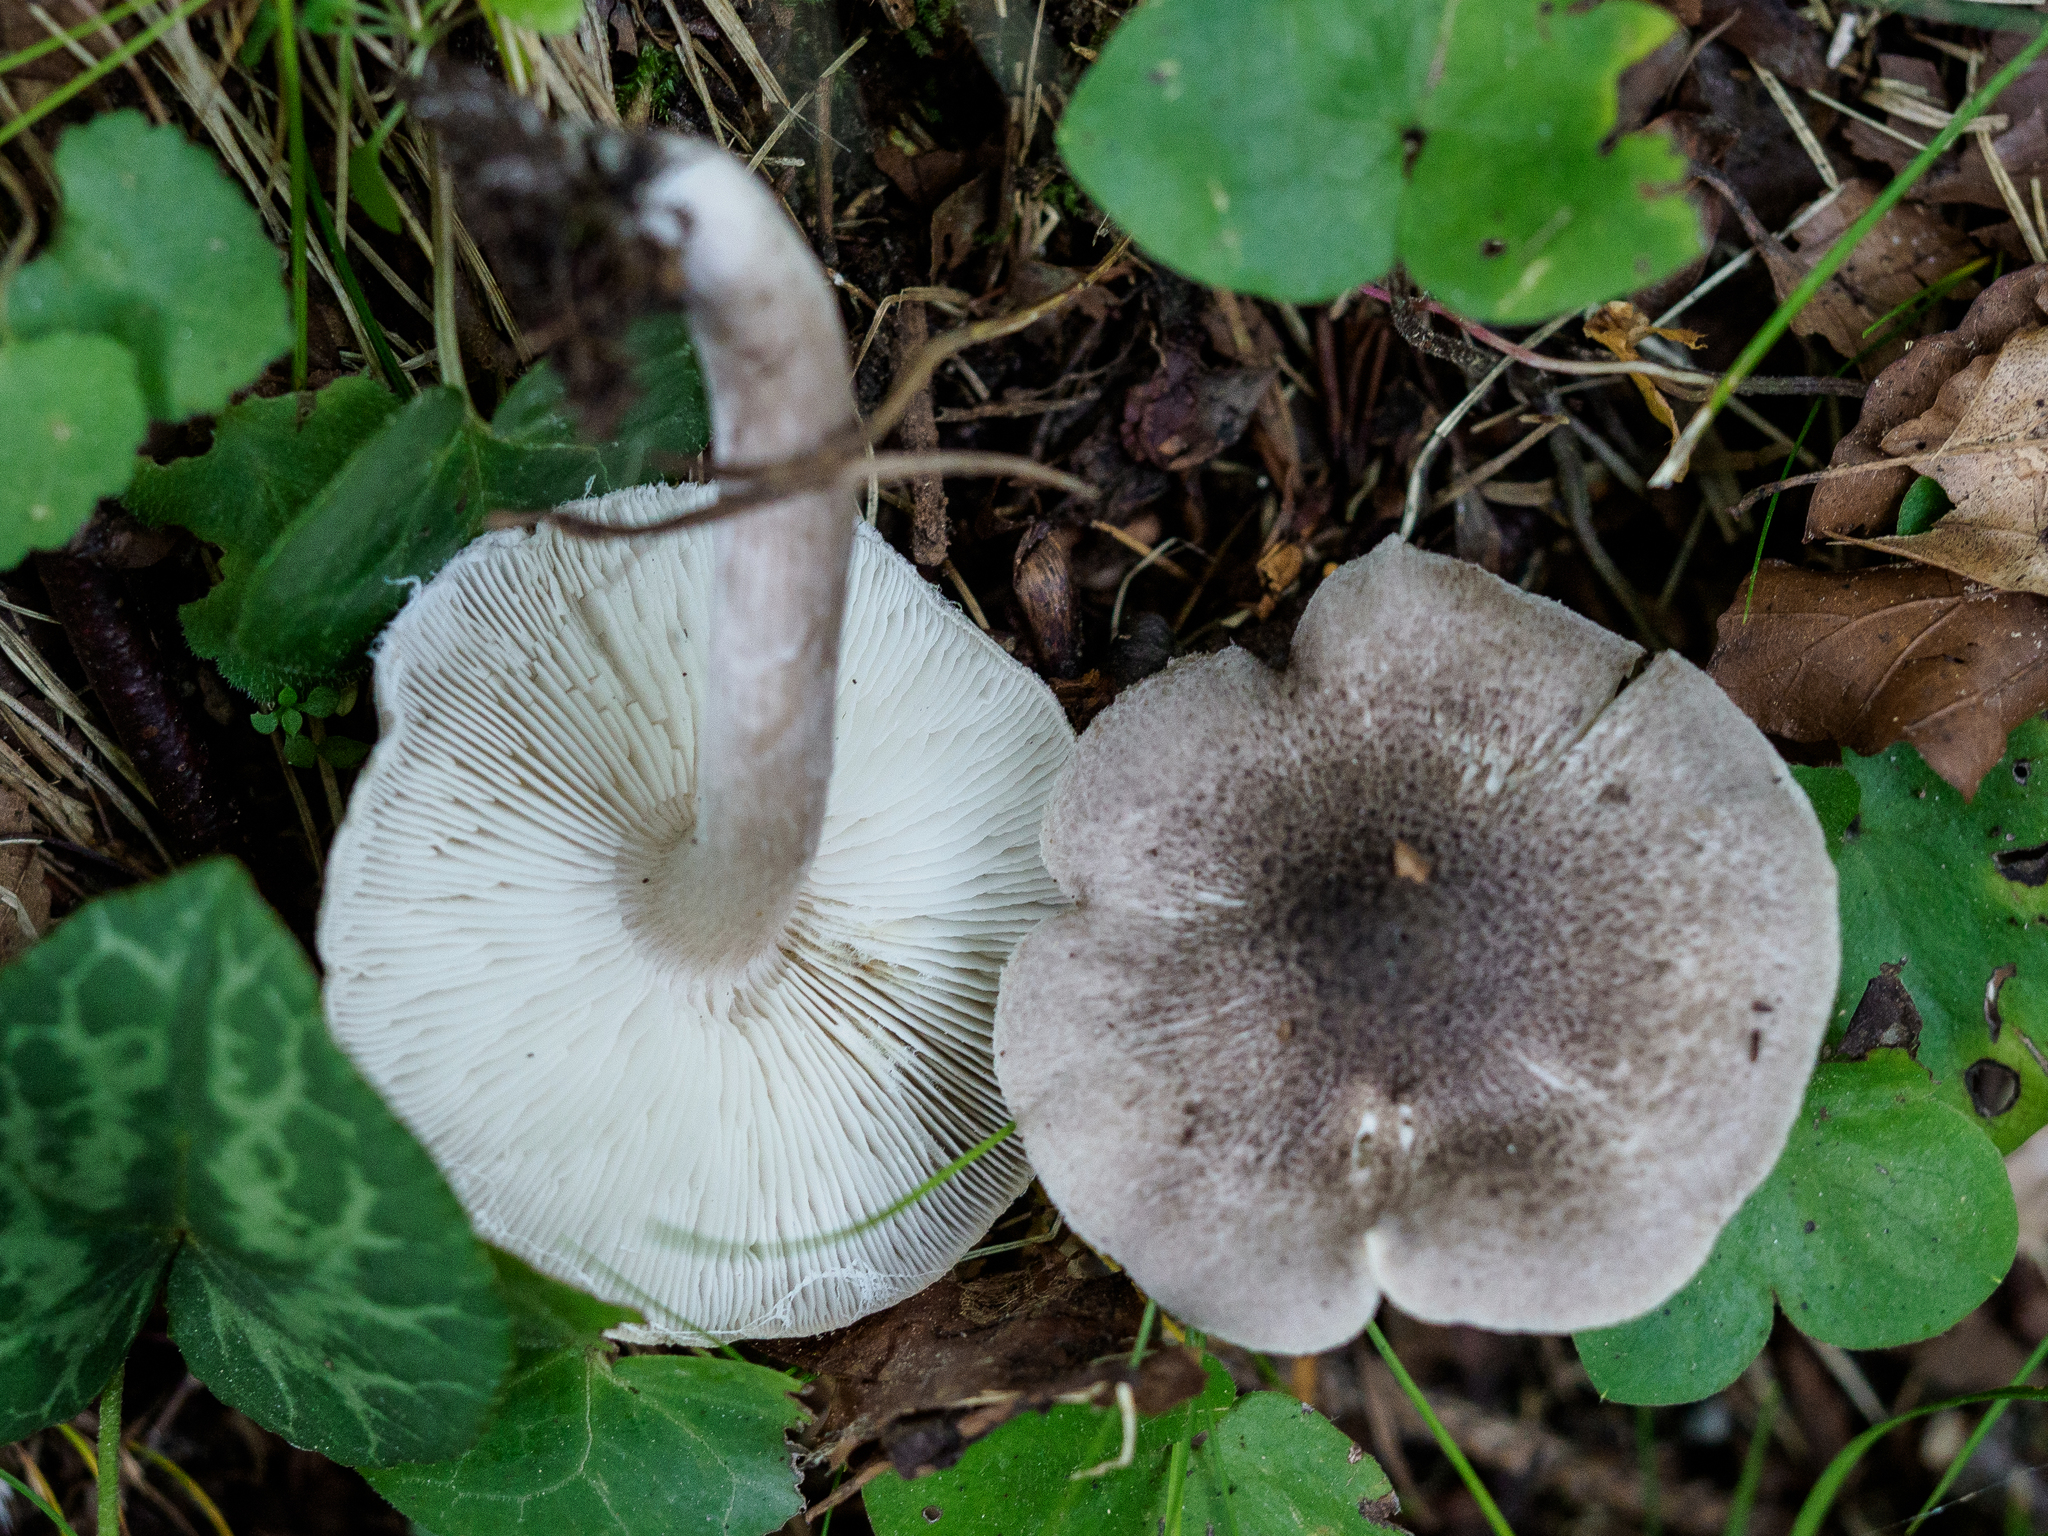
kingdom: Fungi
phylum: Basidiomycota
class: Agaricomycetes
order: Agaricales
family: Tricholomataceae
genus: Tricholoma
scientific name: Tricholoma scalpturatum
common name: Yellowing knight
